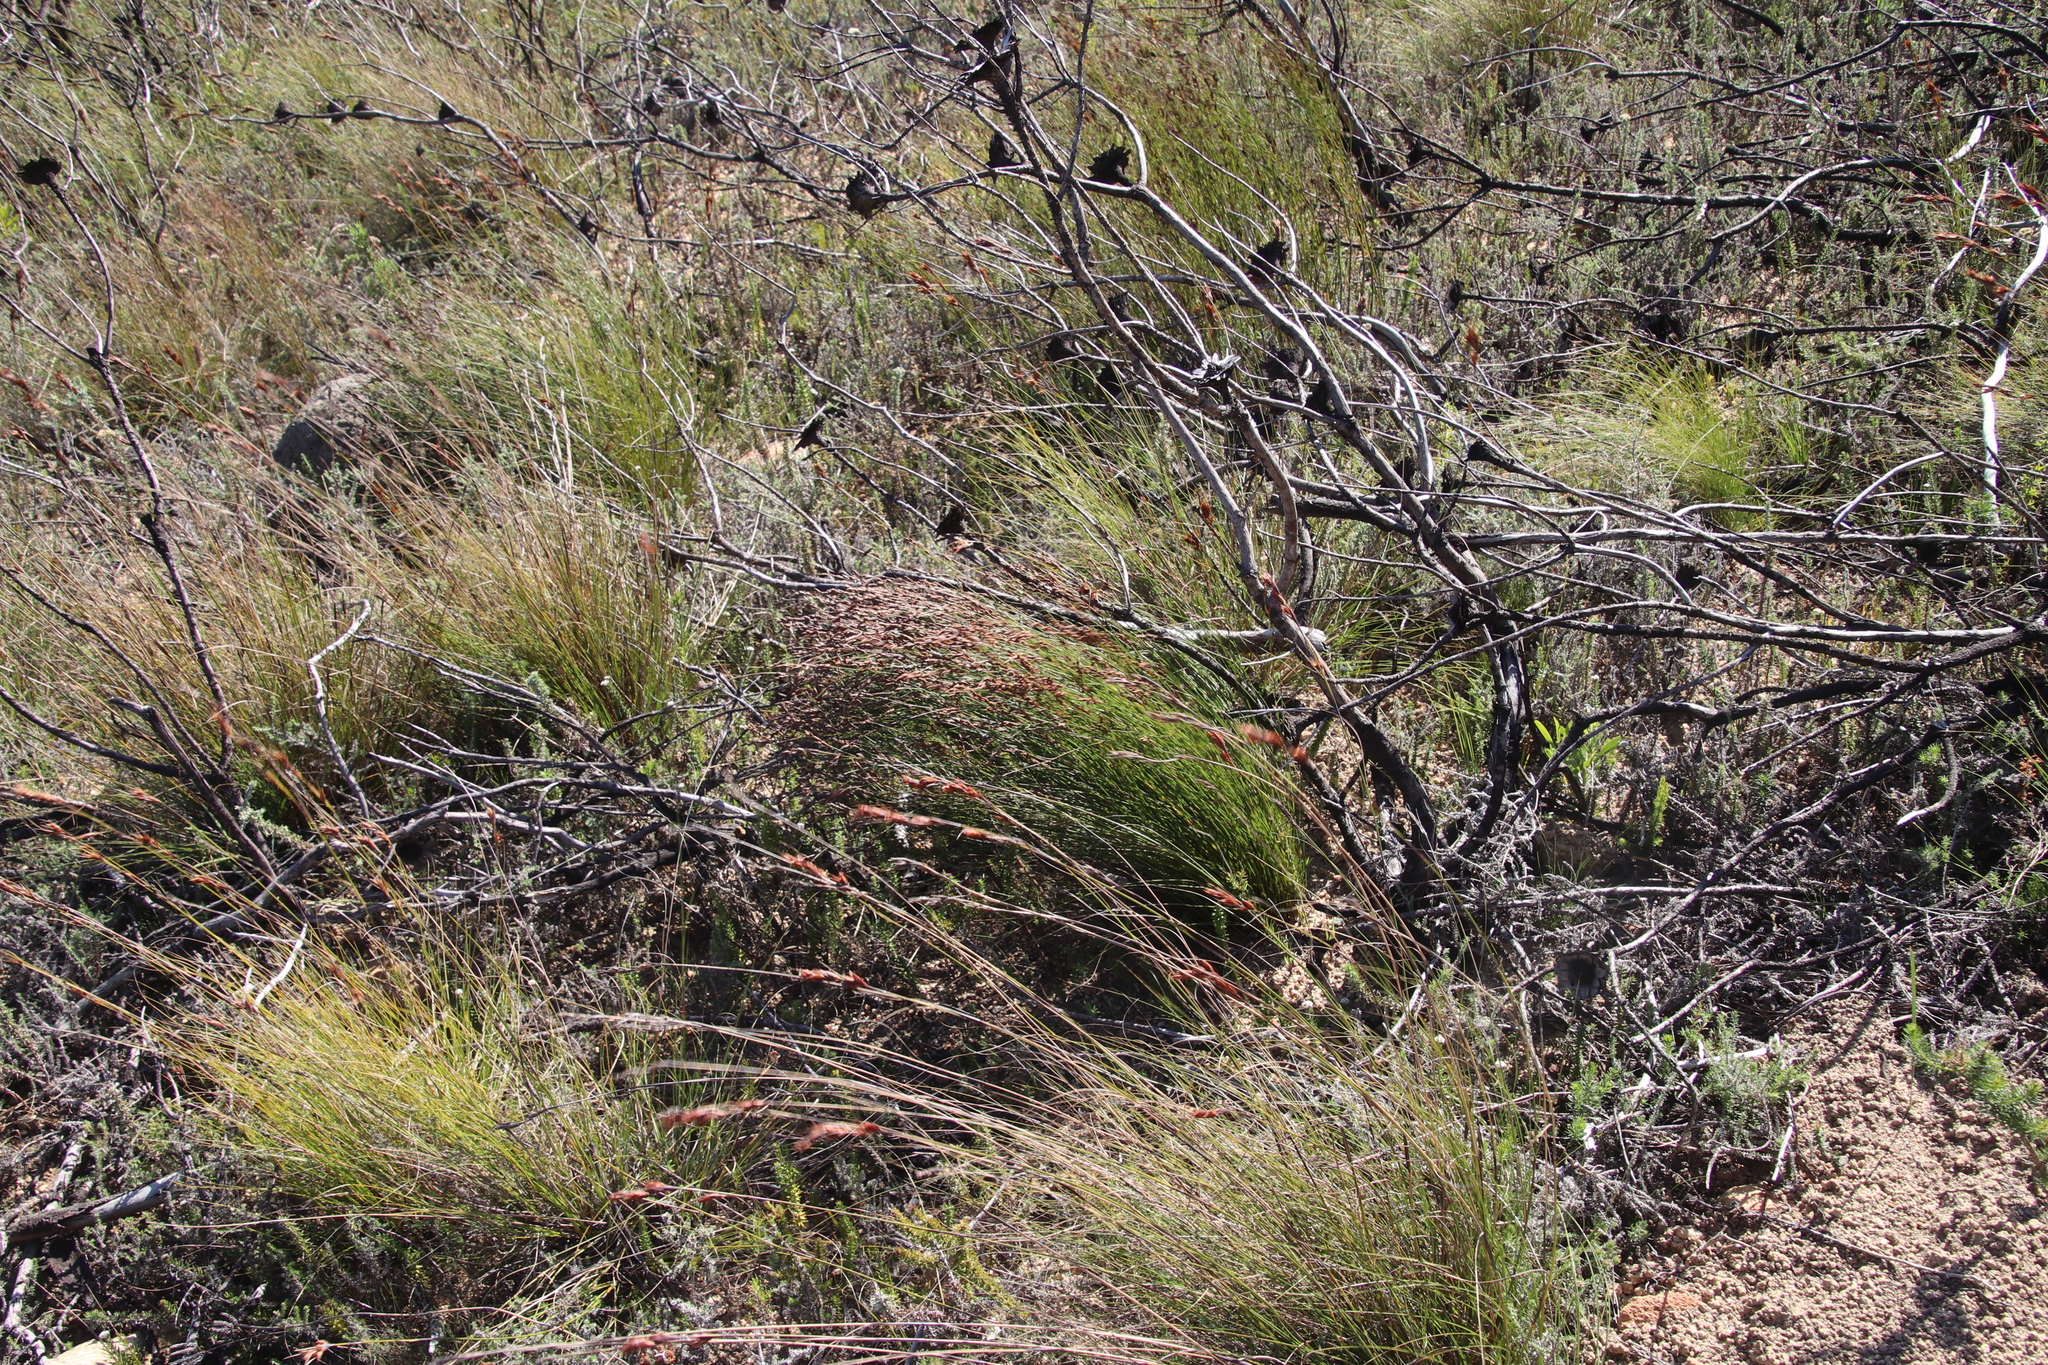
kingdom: Plantae
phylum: Tracheophyta
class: Liliopsida
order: Poales
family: Restionaceae
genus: Restio
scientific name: Restio filiformis
